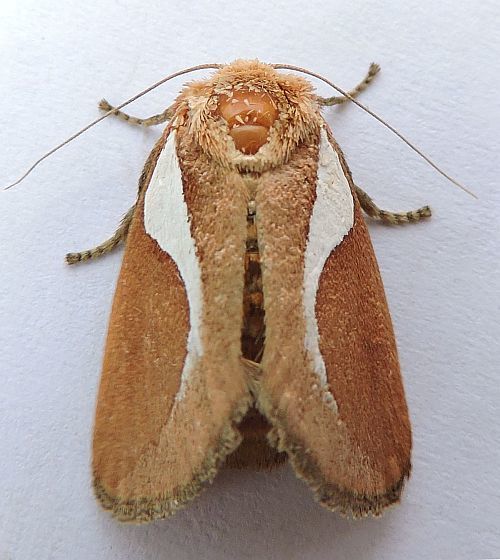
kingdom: Animalia
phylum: Arthropoda
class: Insecta
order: Lepidoptera
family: Limacodidae
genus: Prolimacodes
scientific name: Prolimacodes trigona
